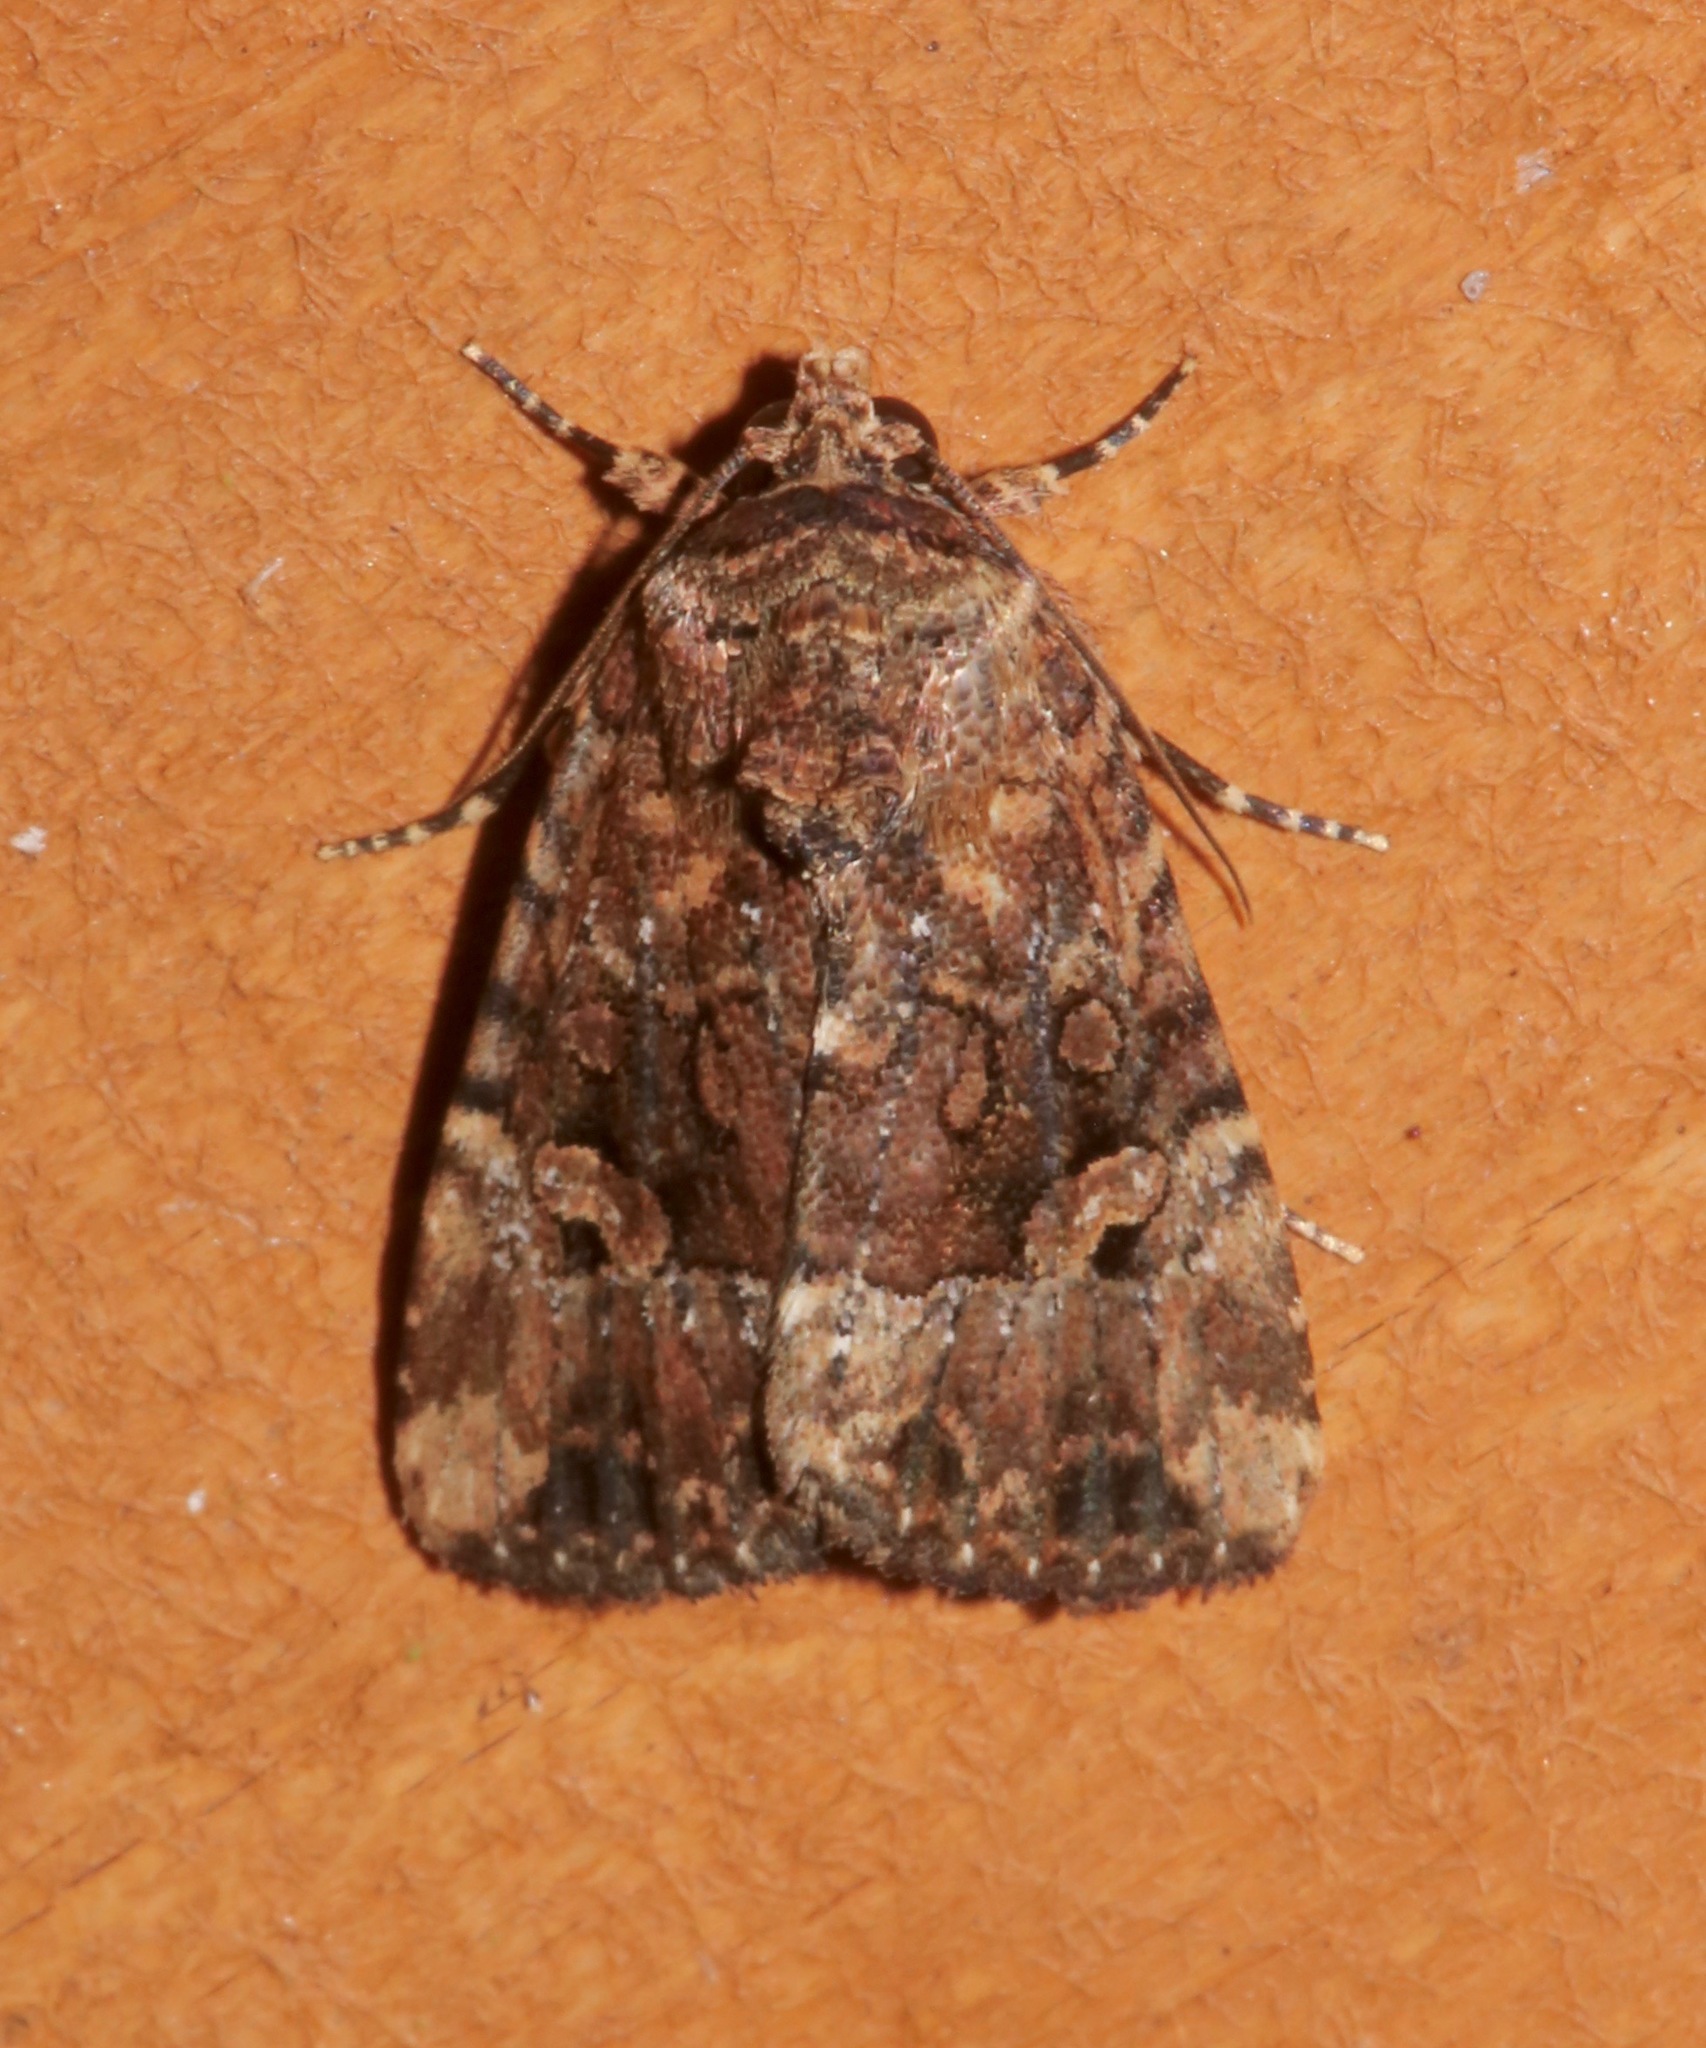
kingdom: Animalia
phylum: Arthropoda
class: Insecta
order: Lepidoptera
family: Noctuidae
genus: Elaphria
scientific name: Elaphria exesa
